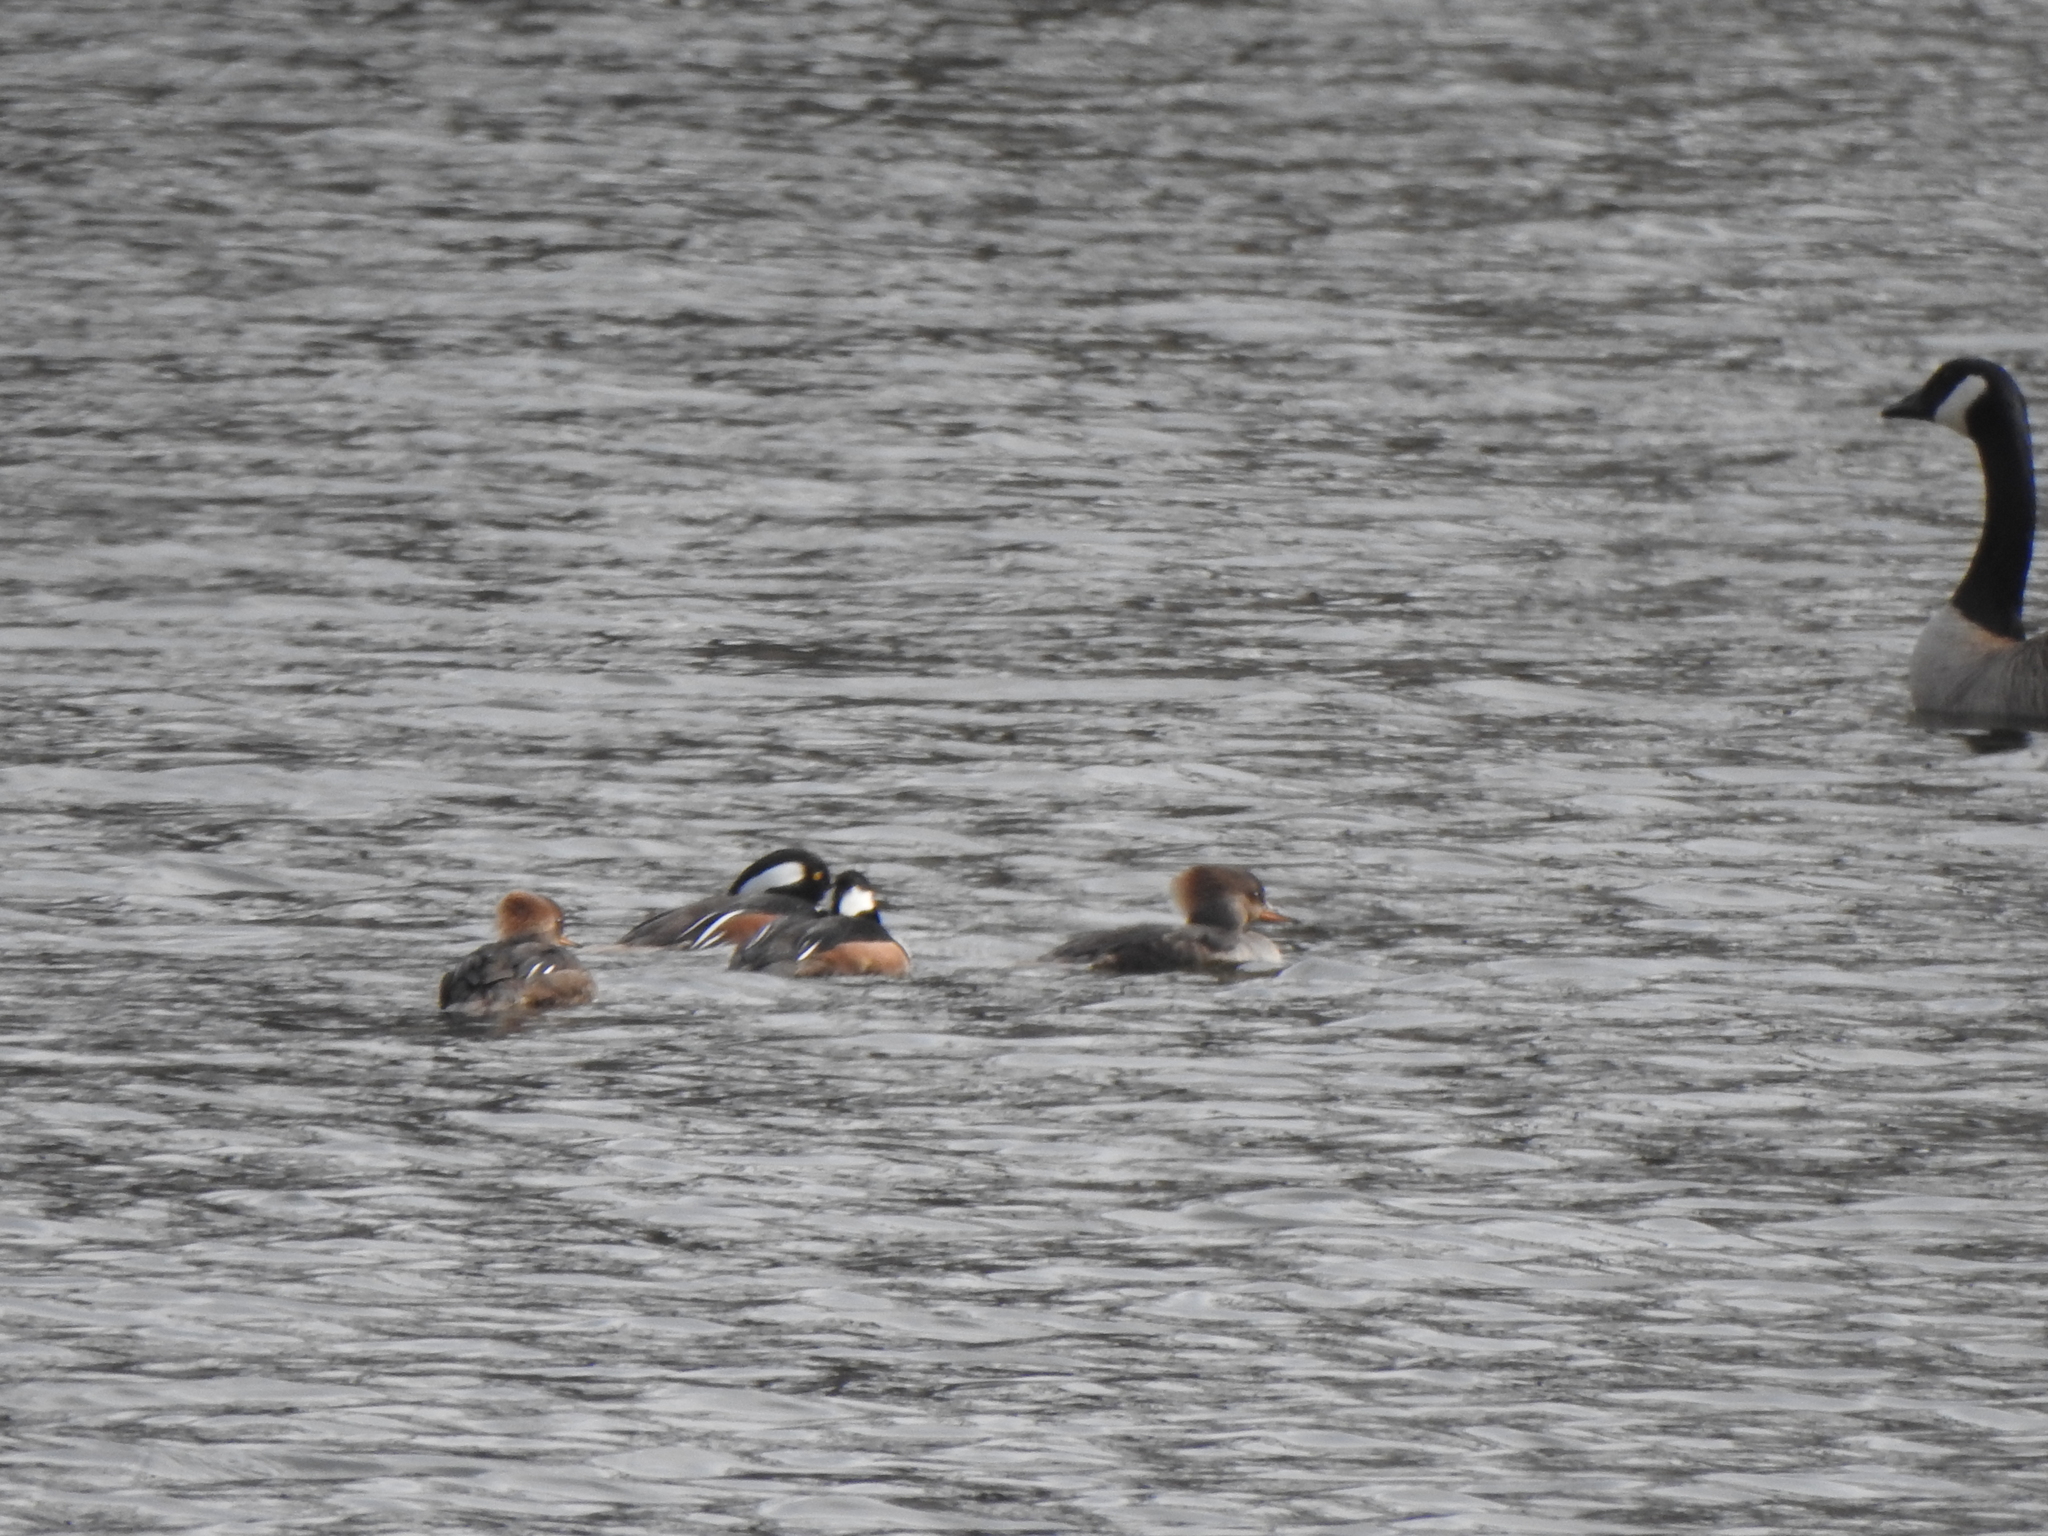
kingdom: Animalia
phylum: Chordata
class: Aves
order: Anseriformes
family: Anatidae
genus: Lophodytes
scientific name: Lophodytes cucullatus
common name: Hooded merganser
